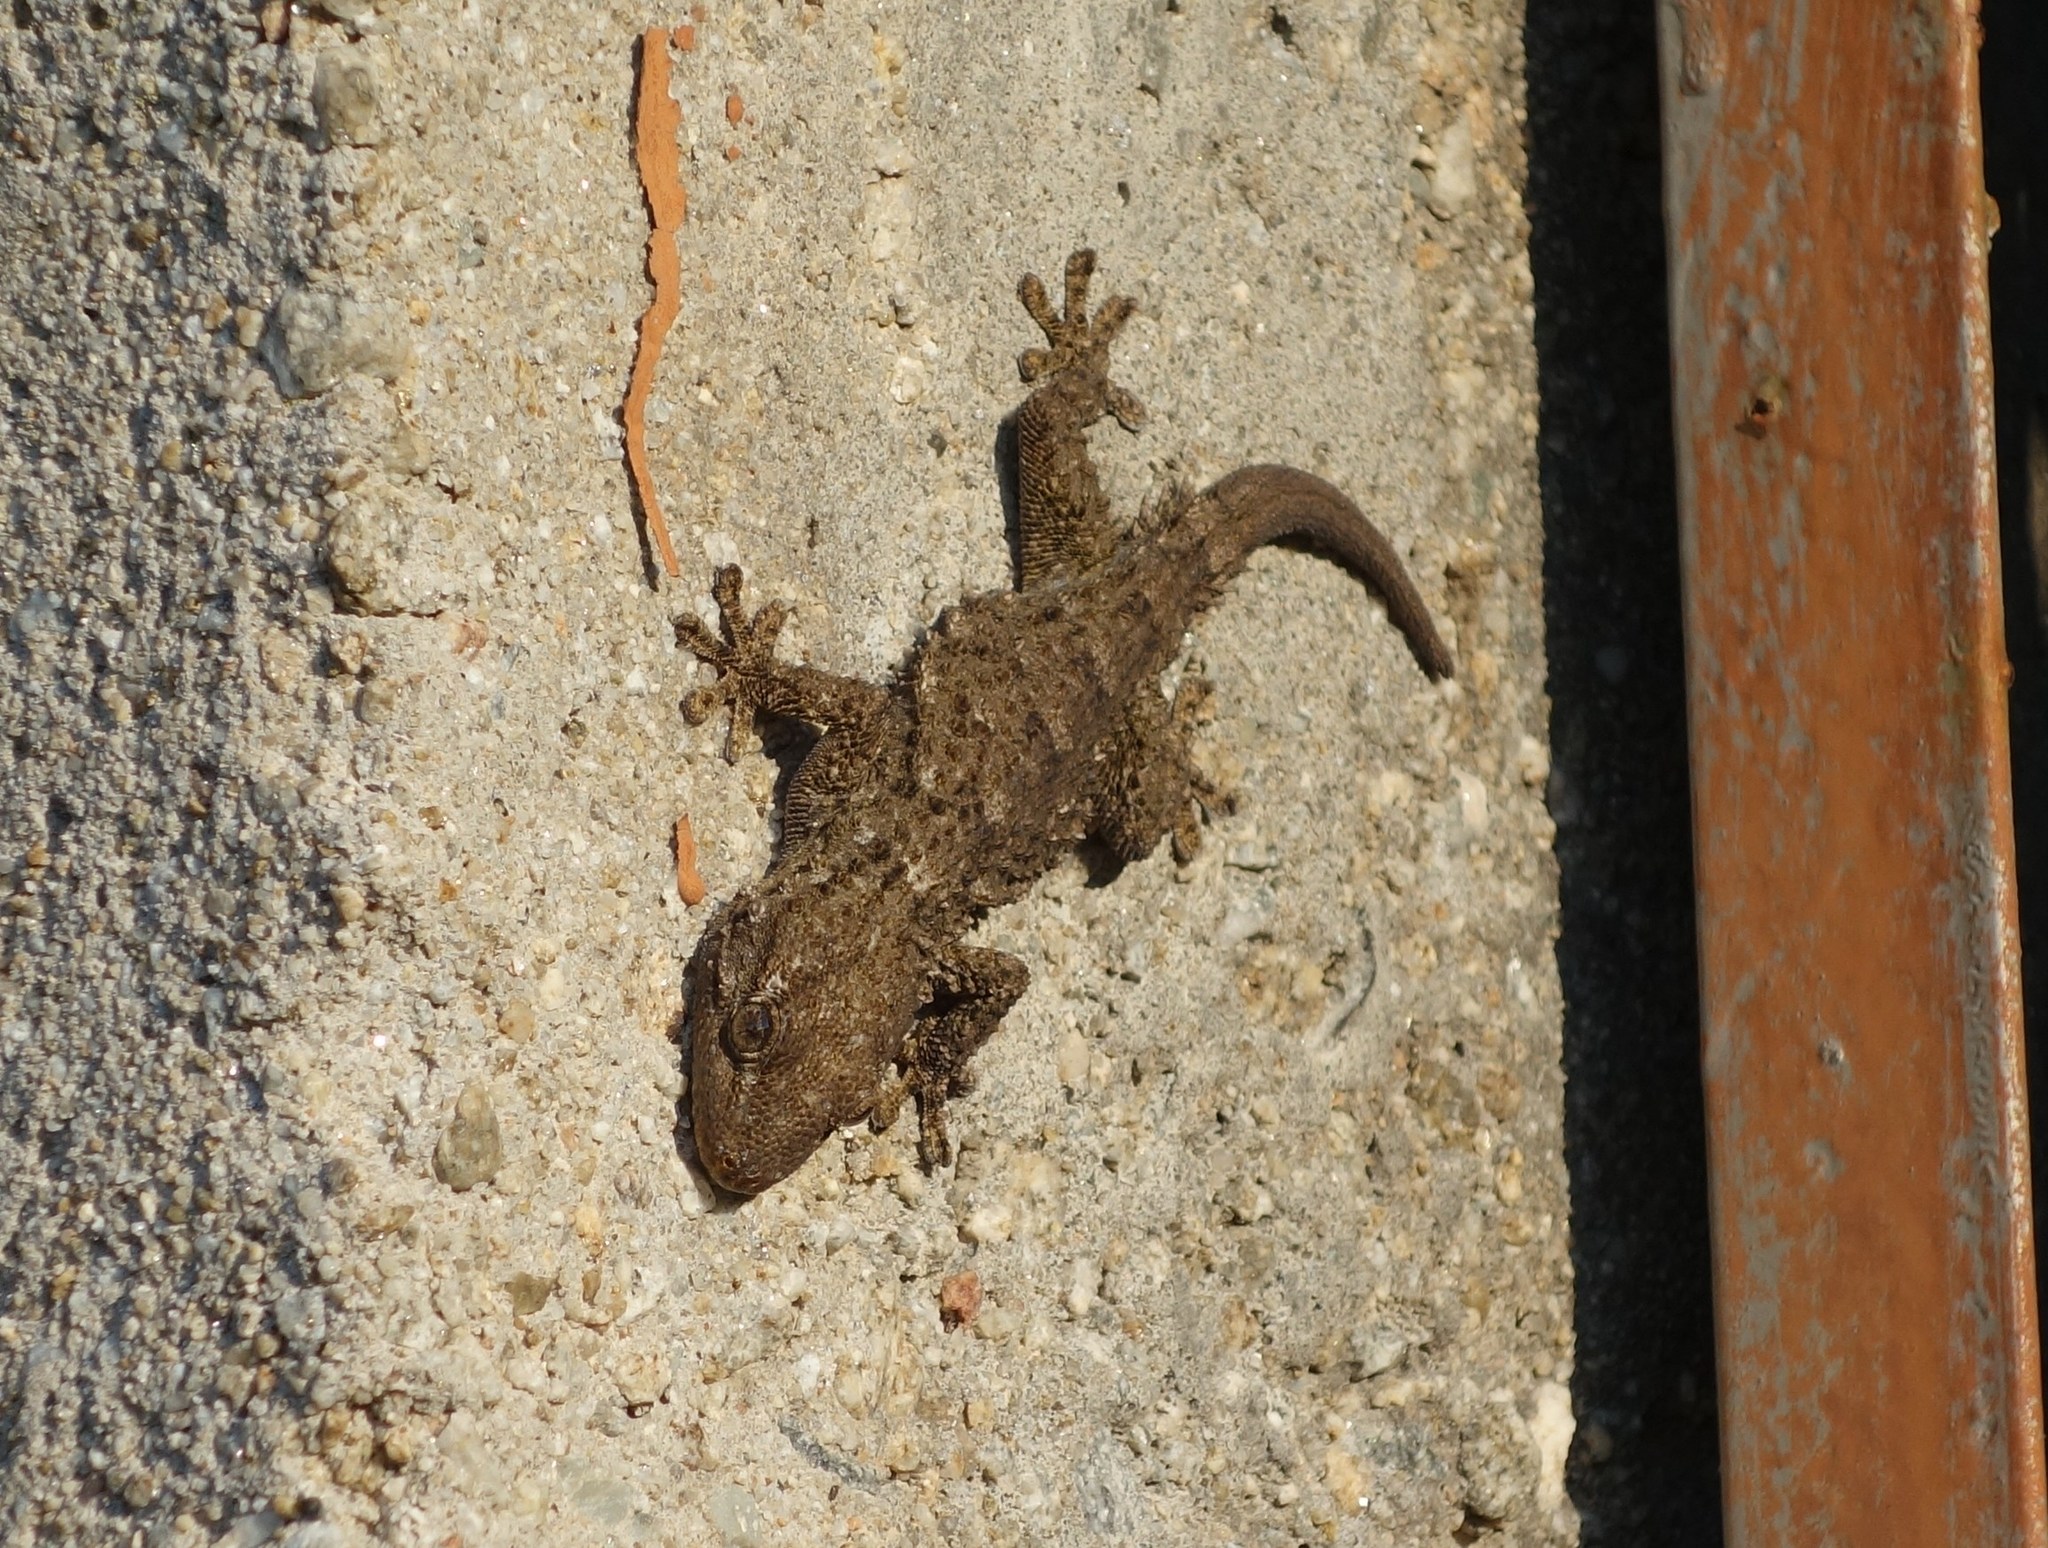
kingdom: Animalia
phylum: Chordata
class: Squamata
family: Phyllodactylidae
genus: Tarentola
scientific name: Tarentola mauritanica
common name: Moorish gecko
